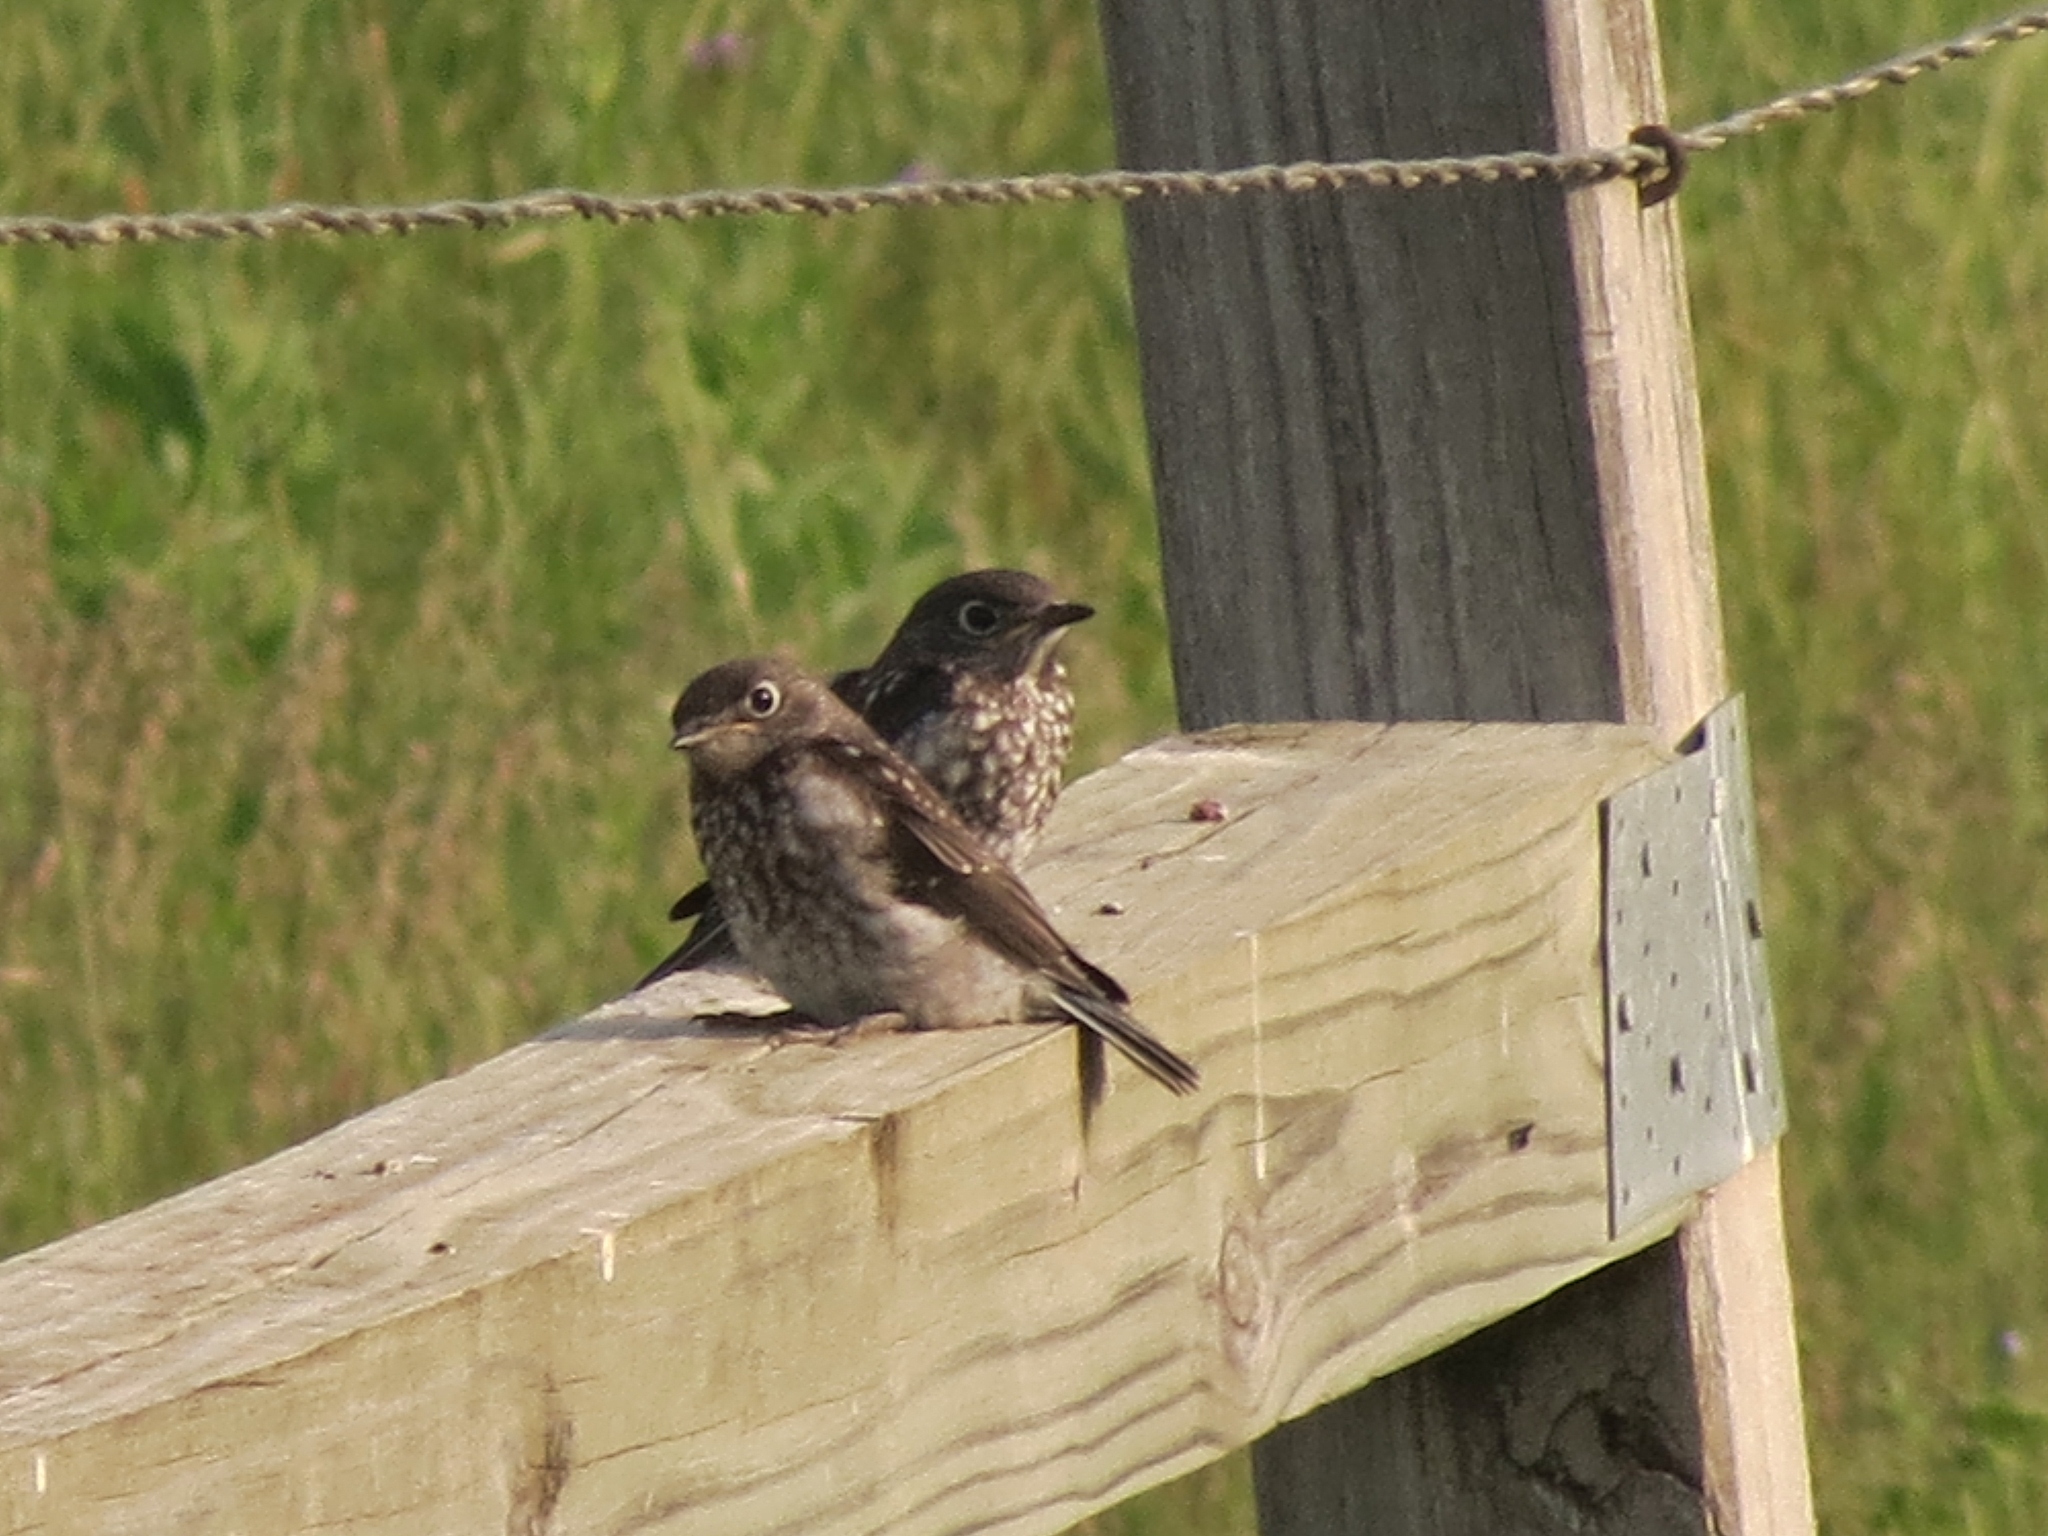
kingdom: Animalia
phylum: Chordata
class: Aves
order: Passeriformes
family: Turdidae
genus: Sialia
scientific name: Sialia sialis
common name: Eastern bluebird
